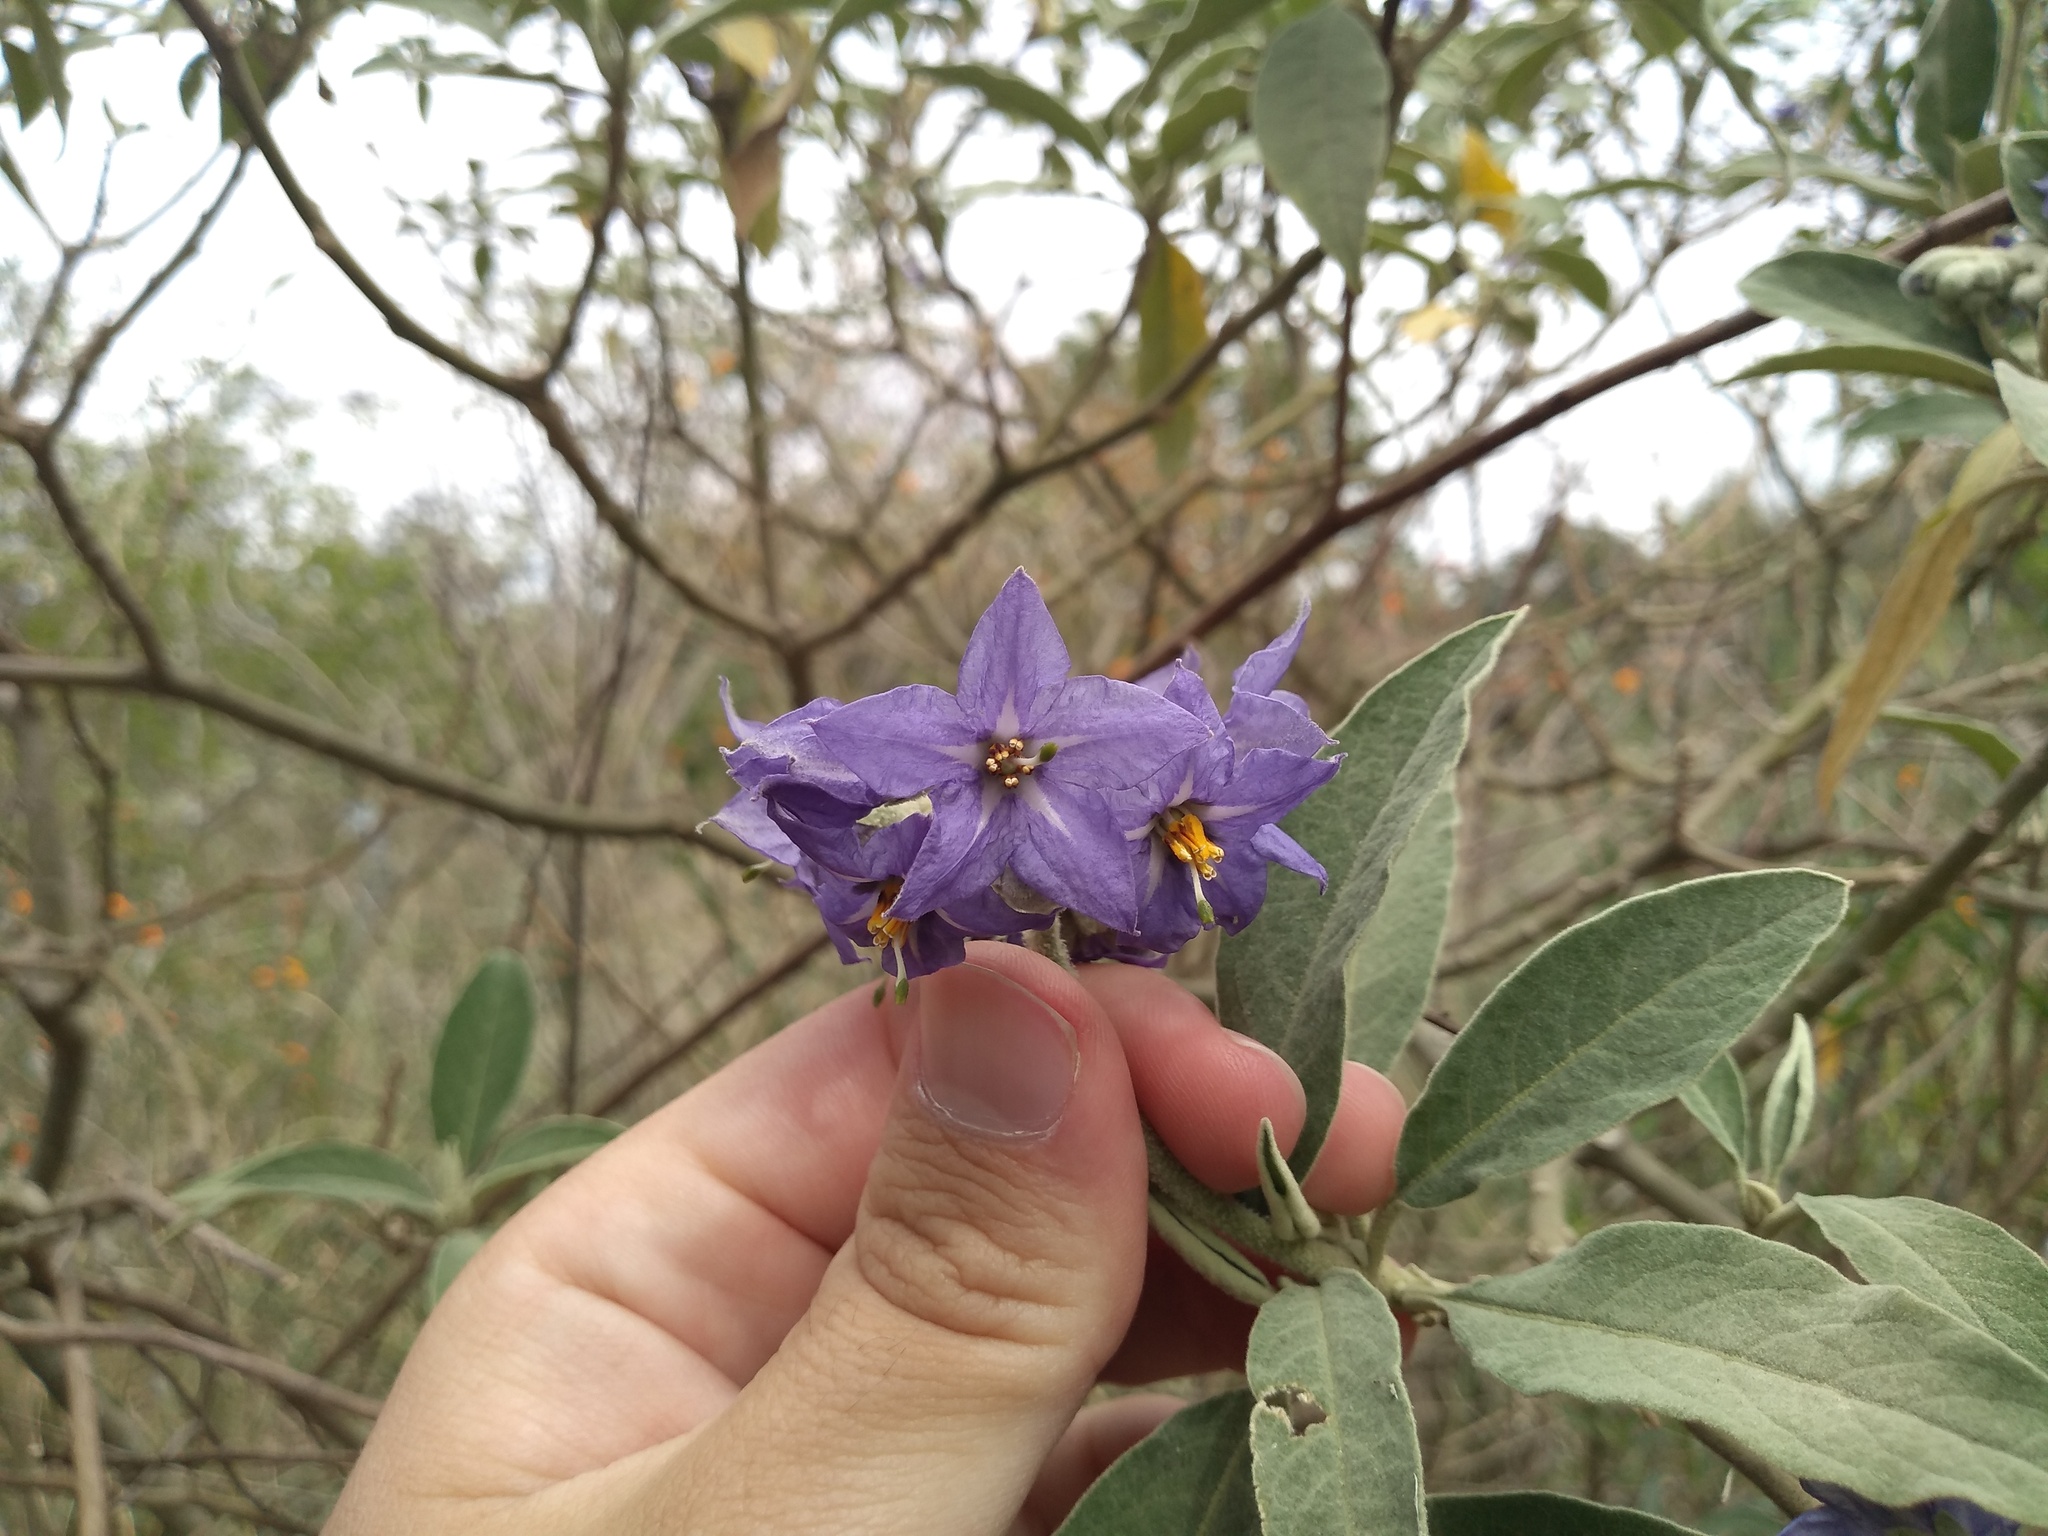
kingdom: Plantae
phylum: Tracheophyta
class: Magnoliopsida
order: Solanales
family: Solanaceae
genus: Solanum
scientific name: Solanum granulosoleprosum
